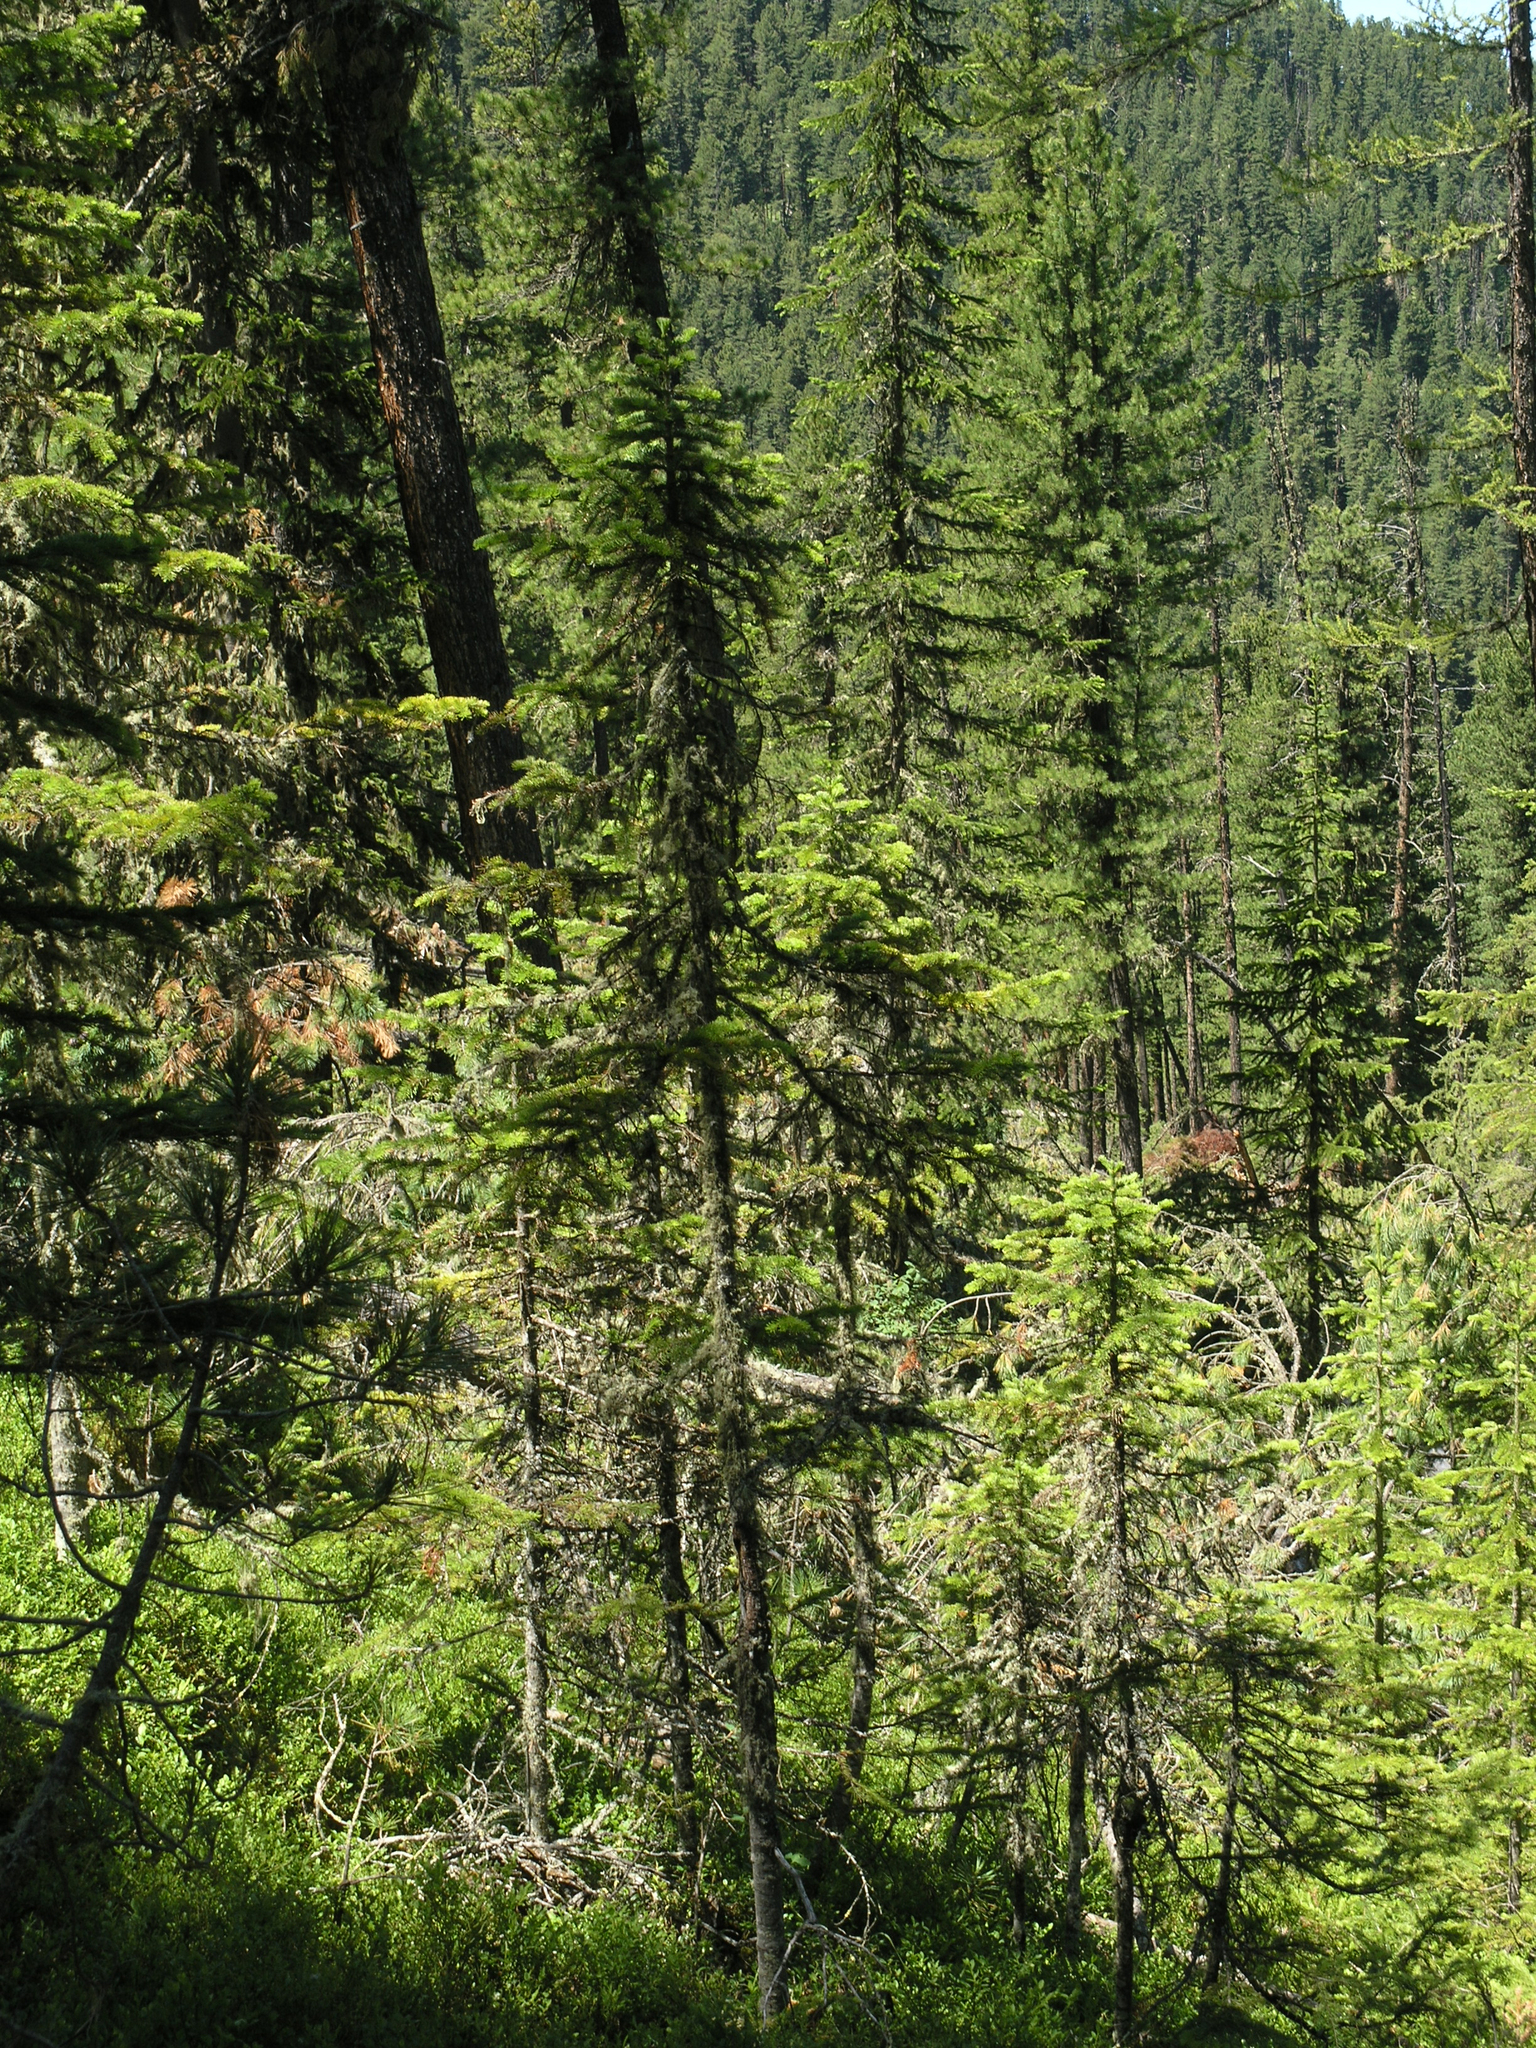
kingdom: Plantae
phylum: Tracheophyta
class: Pinopsida
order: Pinales
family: Pinaceae
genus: Abies
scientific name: Abies sibirica
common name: Siberian fir
